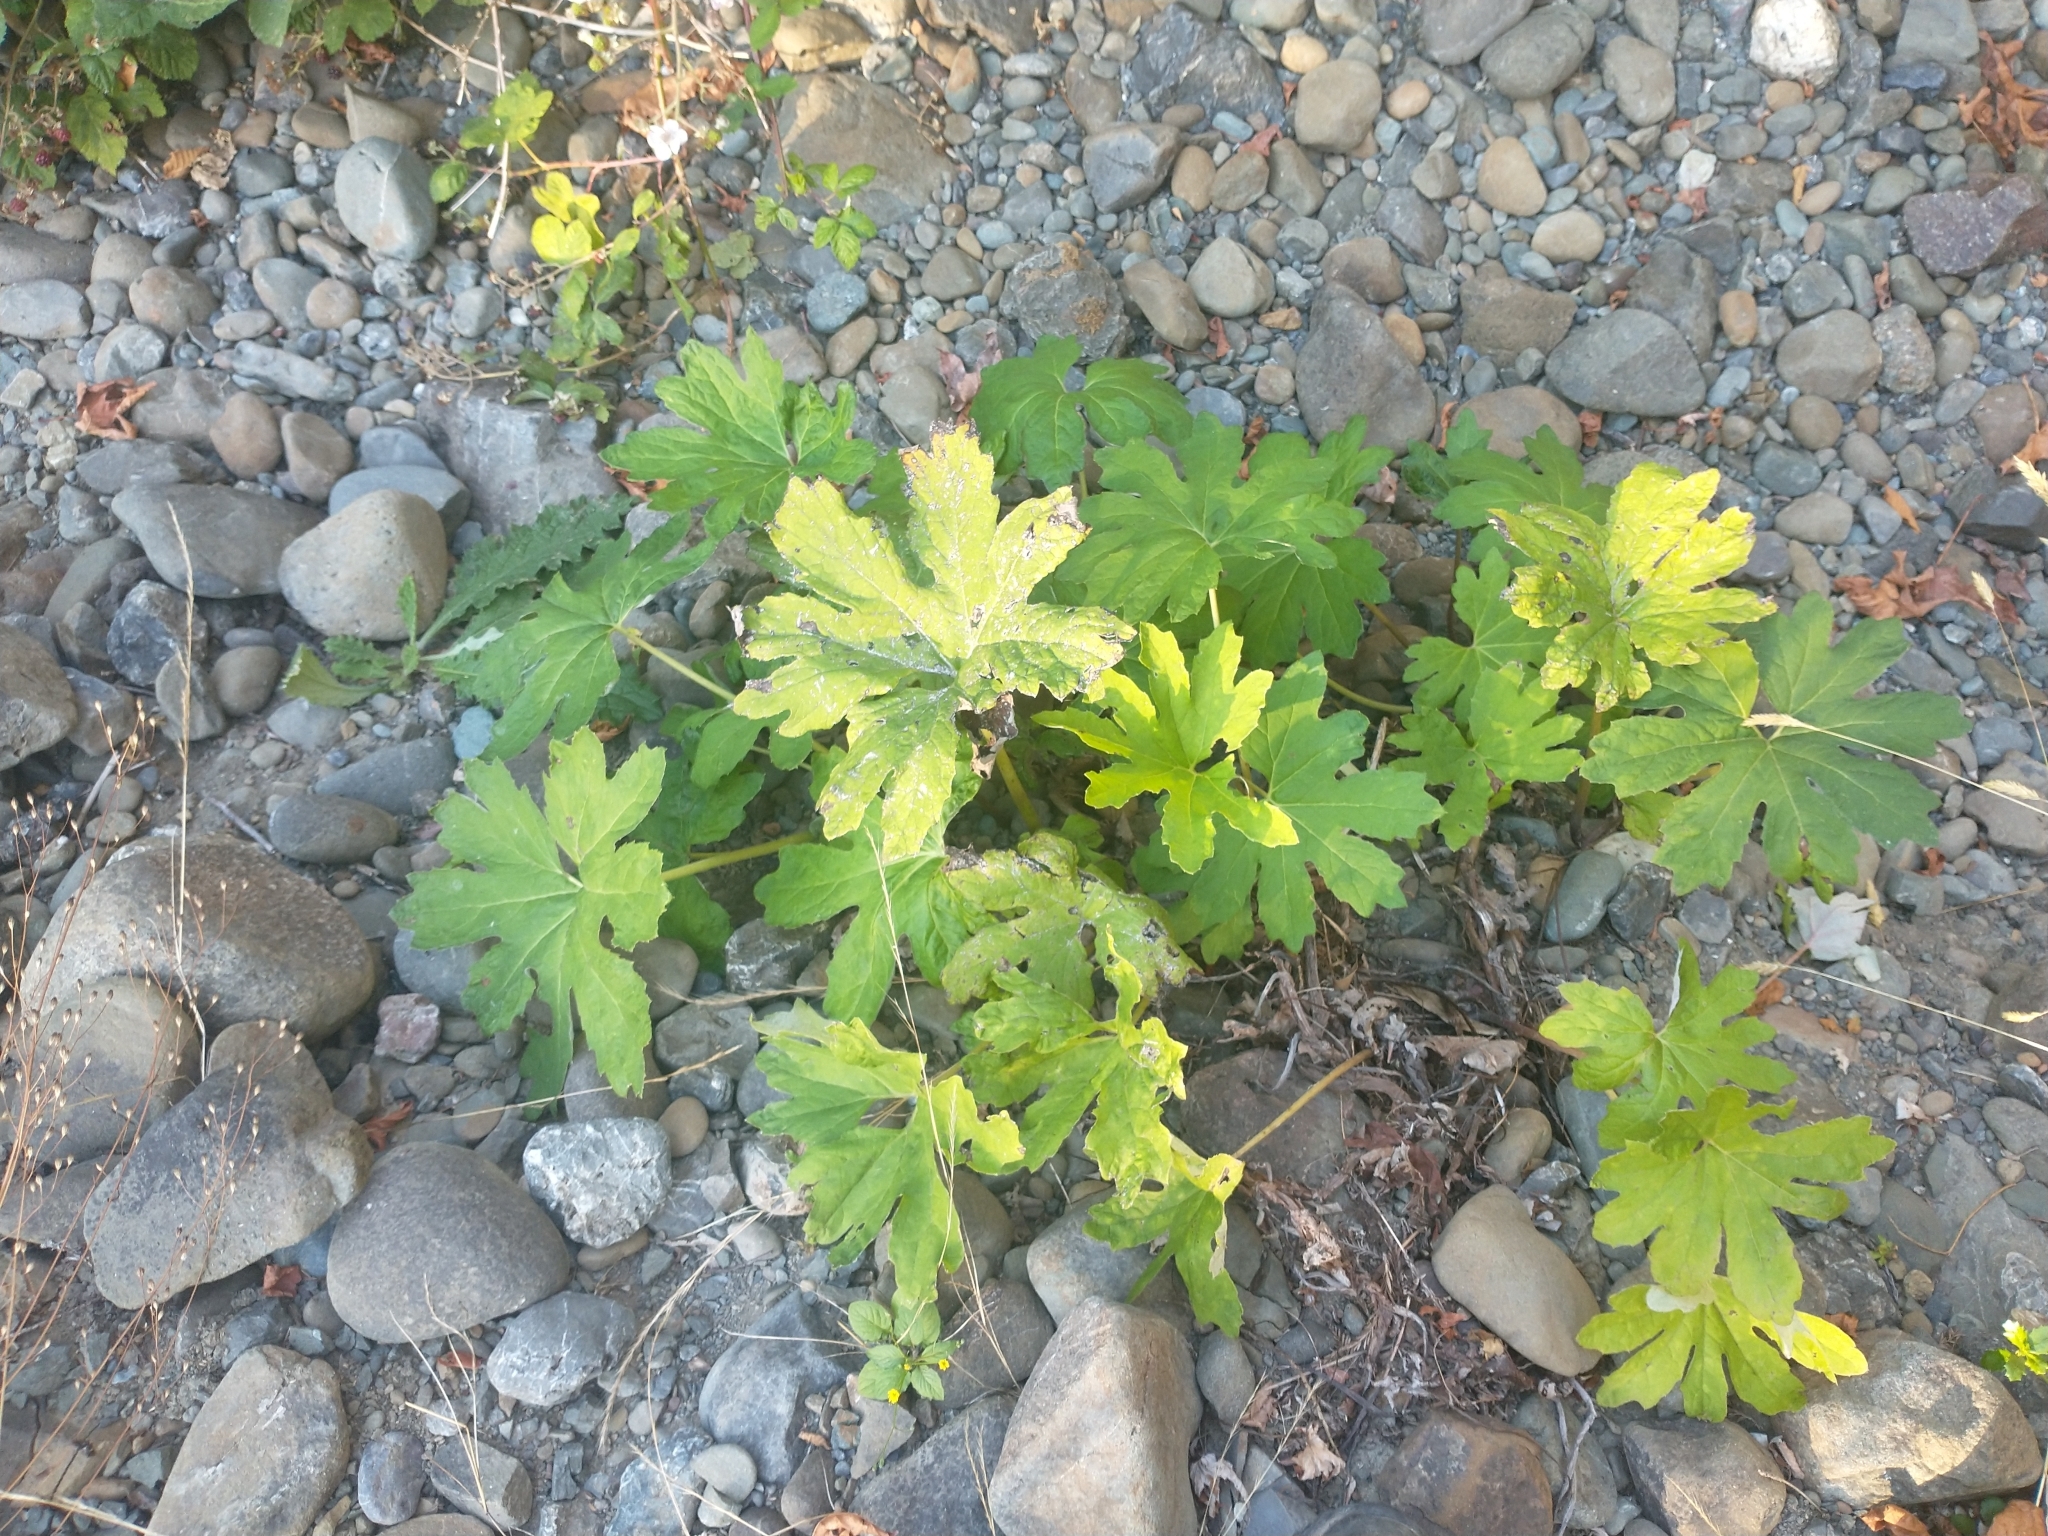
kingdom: Plantae
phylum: Tracheophyta
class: Magnoliopsida
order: Asterales
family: Asteraceae
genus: Petasites
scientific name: Petasites frigidus
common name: Arctic butterbur
